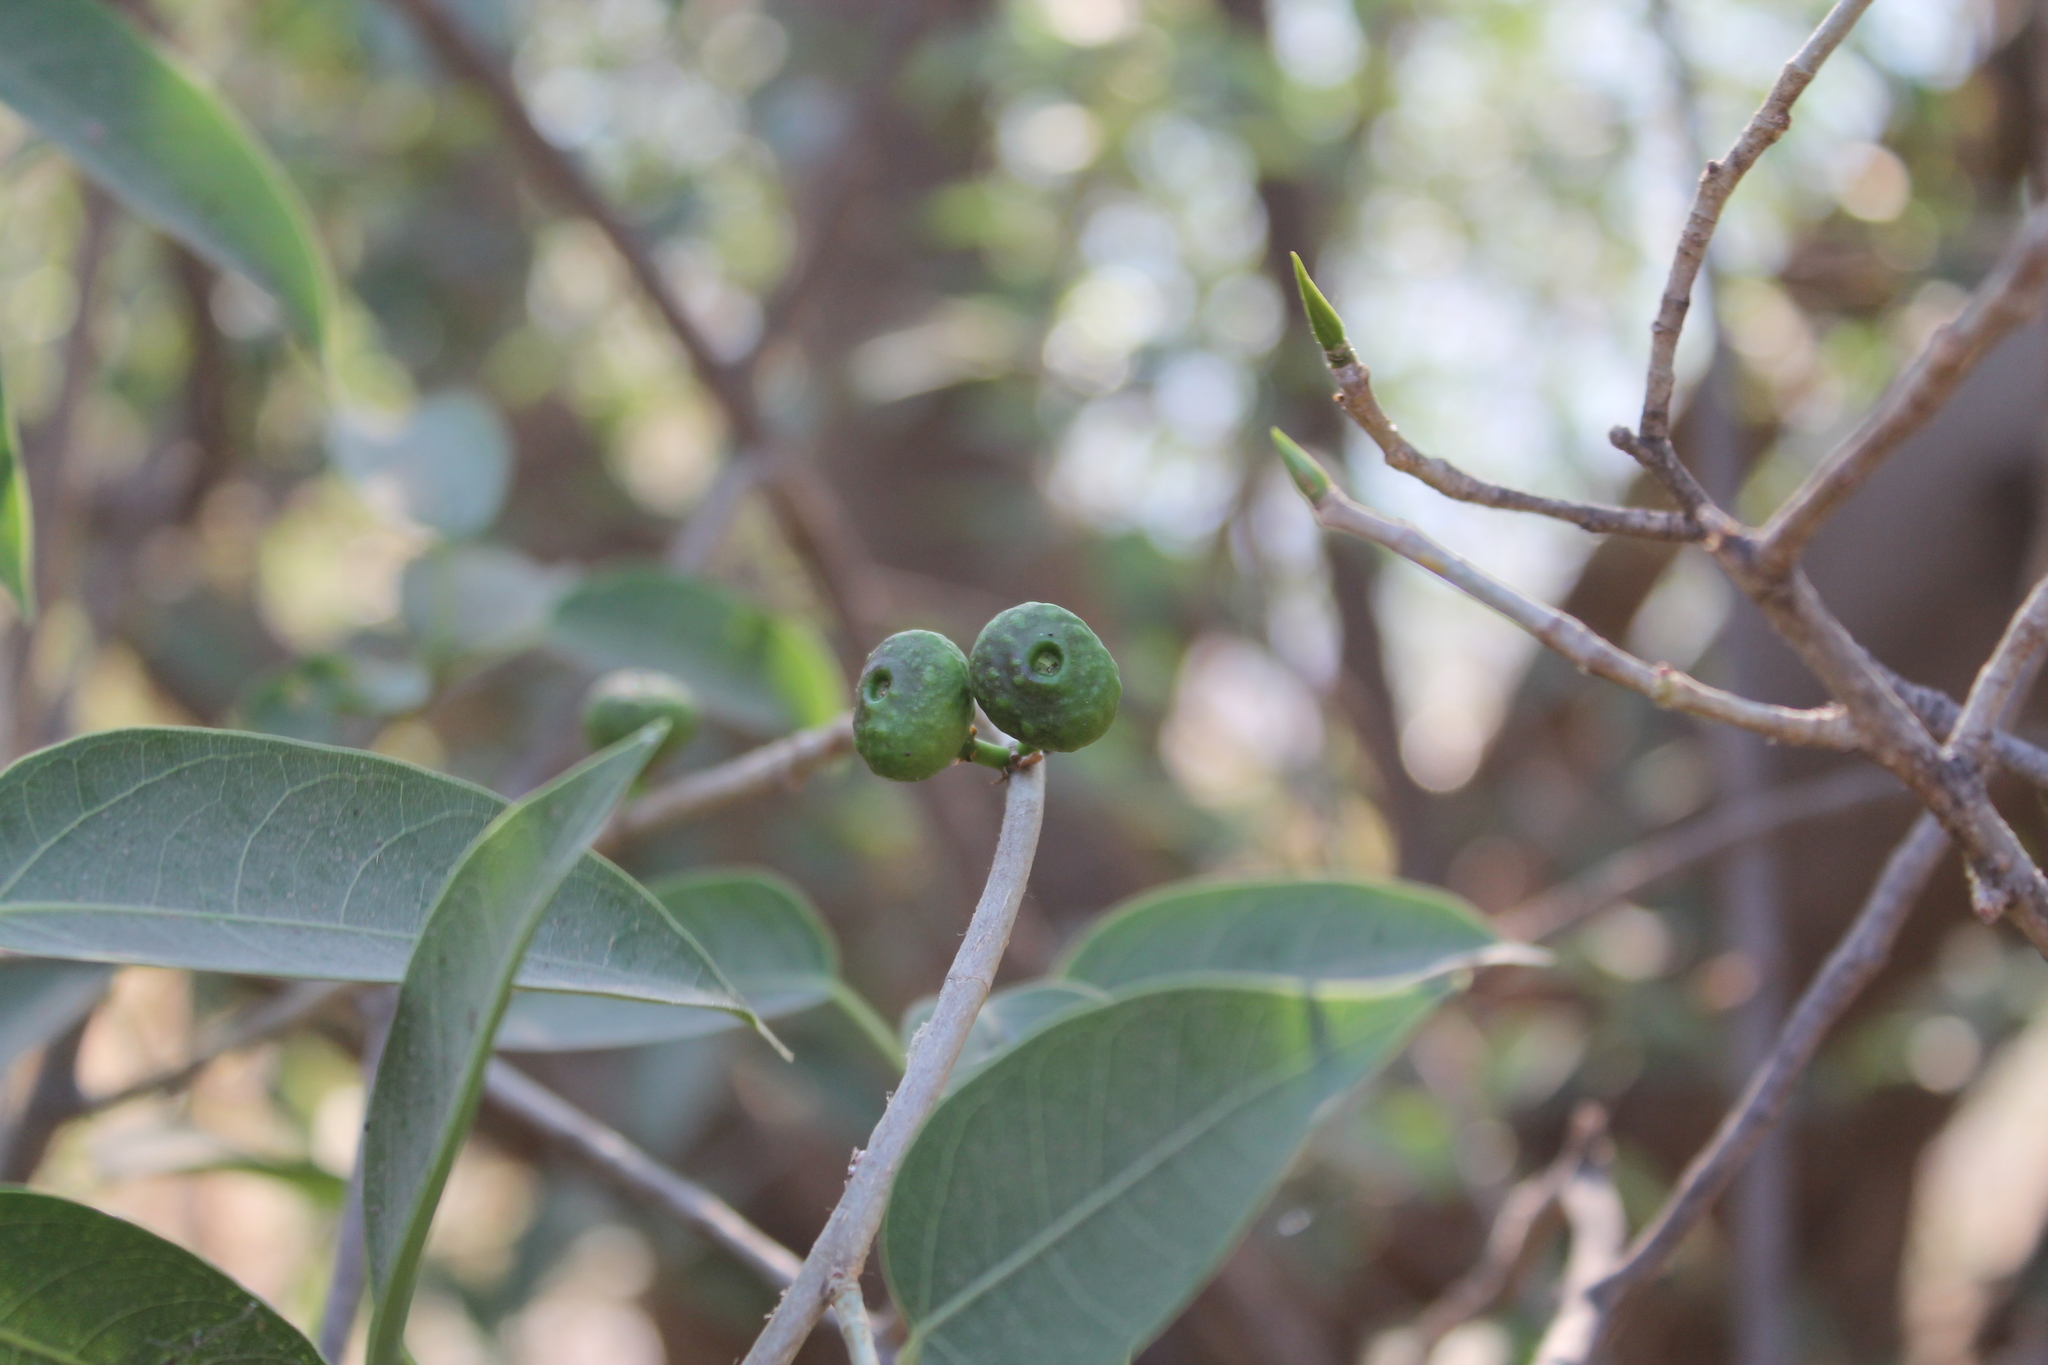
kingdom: Plantae
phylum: Tracheophyta
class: Magnoliopsida
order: Rosales
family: Moraceae
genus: Ficus
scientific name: Ficus pertusa
